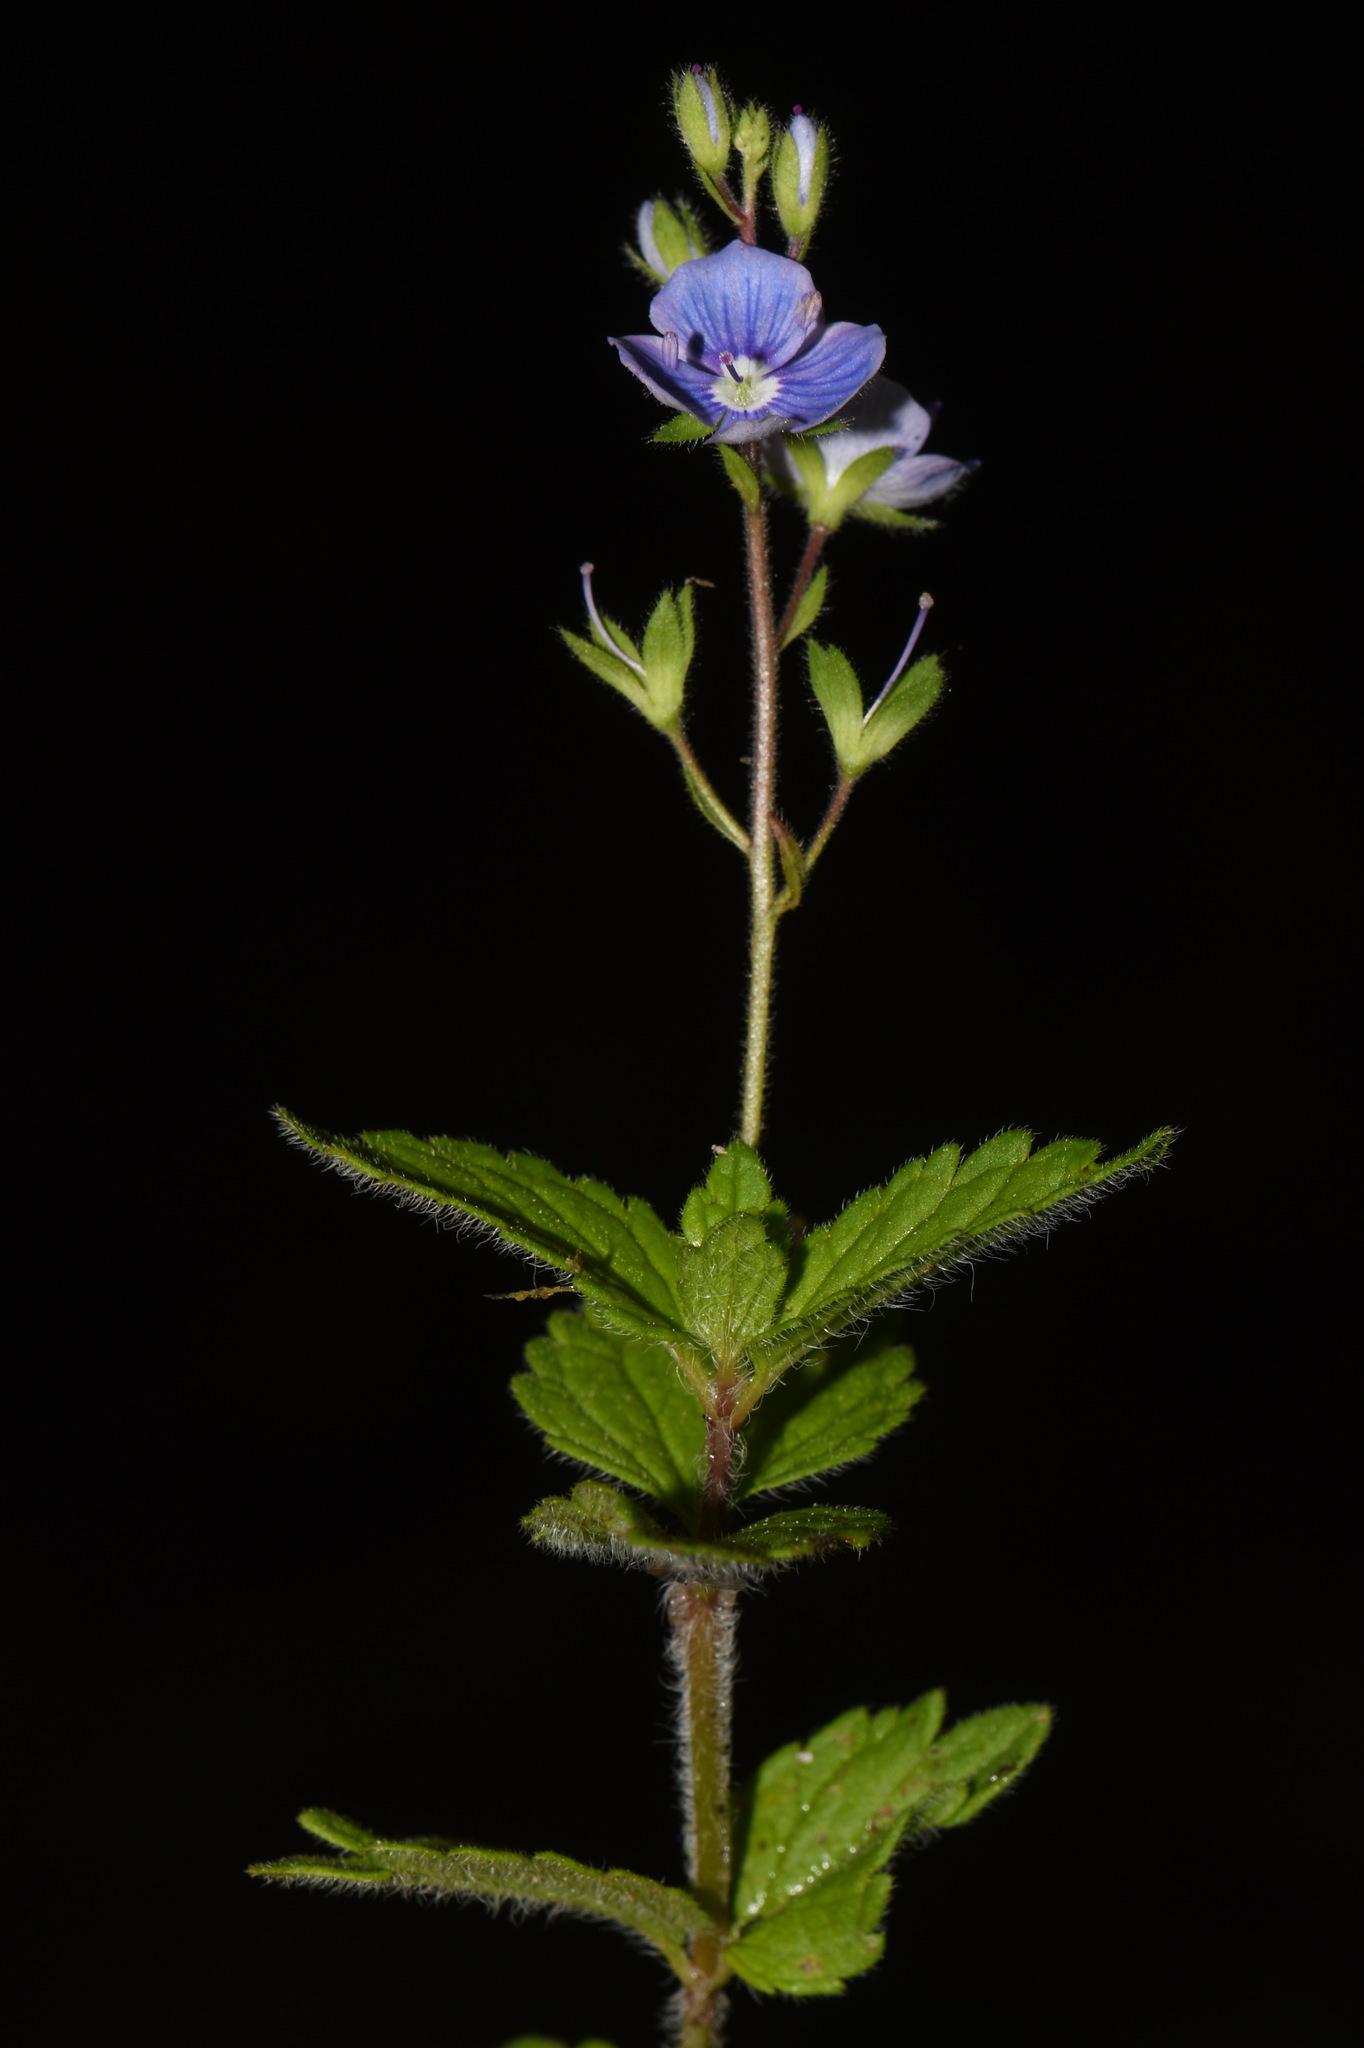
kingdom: Plantae
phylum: Tracheophyta
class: Magnoliopsida
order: Lamiales
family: Plantaginaceae
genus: Veronica
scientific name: Veronica chamaedrys
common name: Germander speedwell
